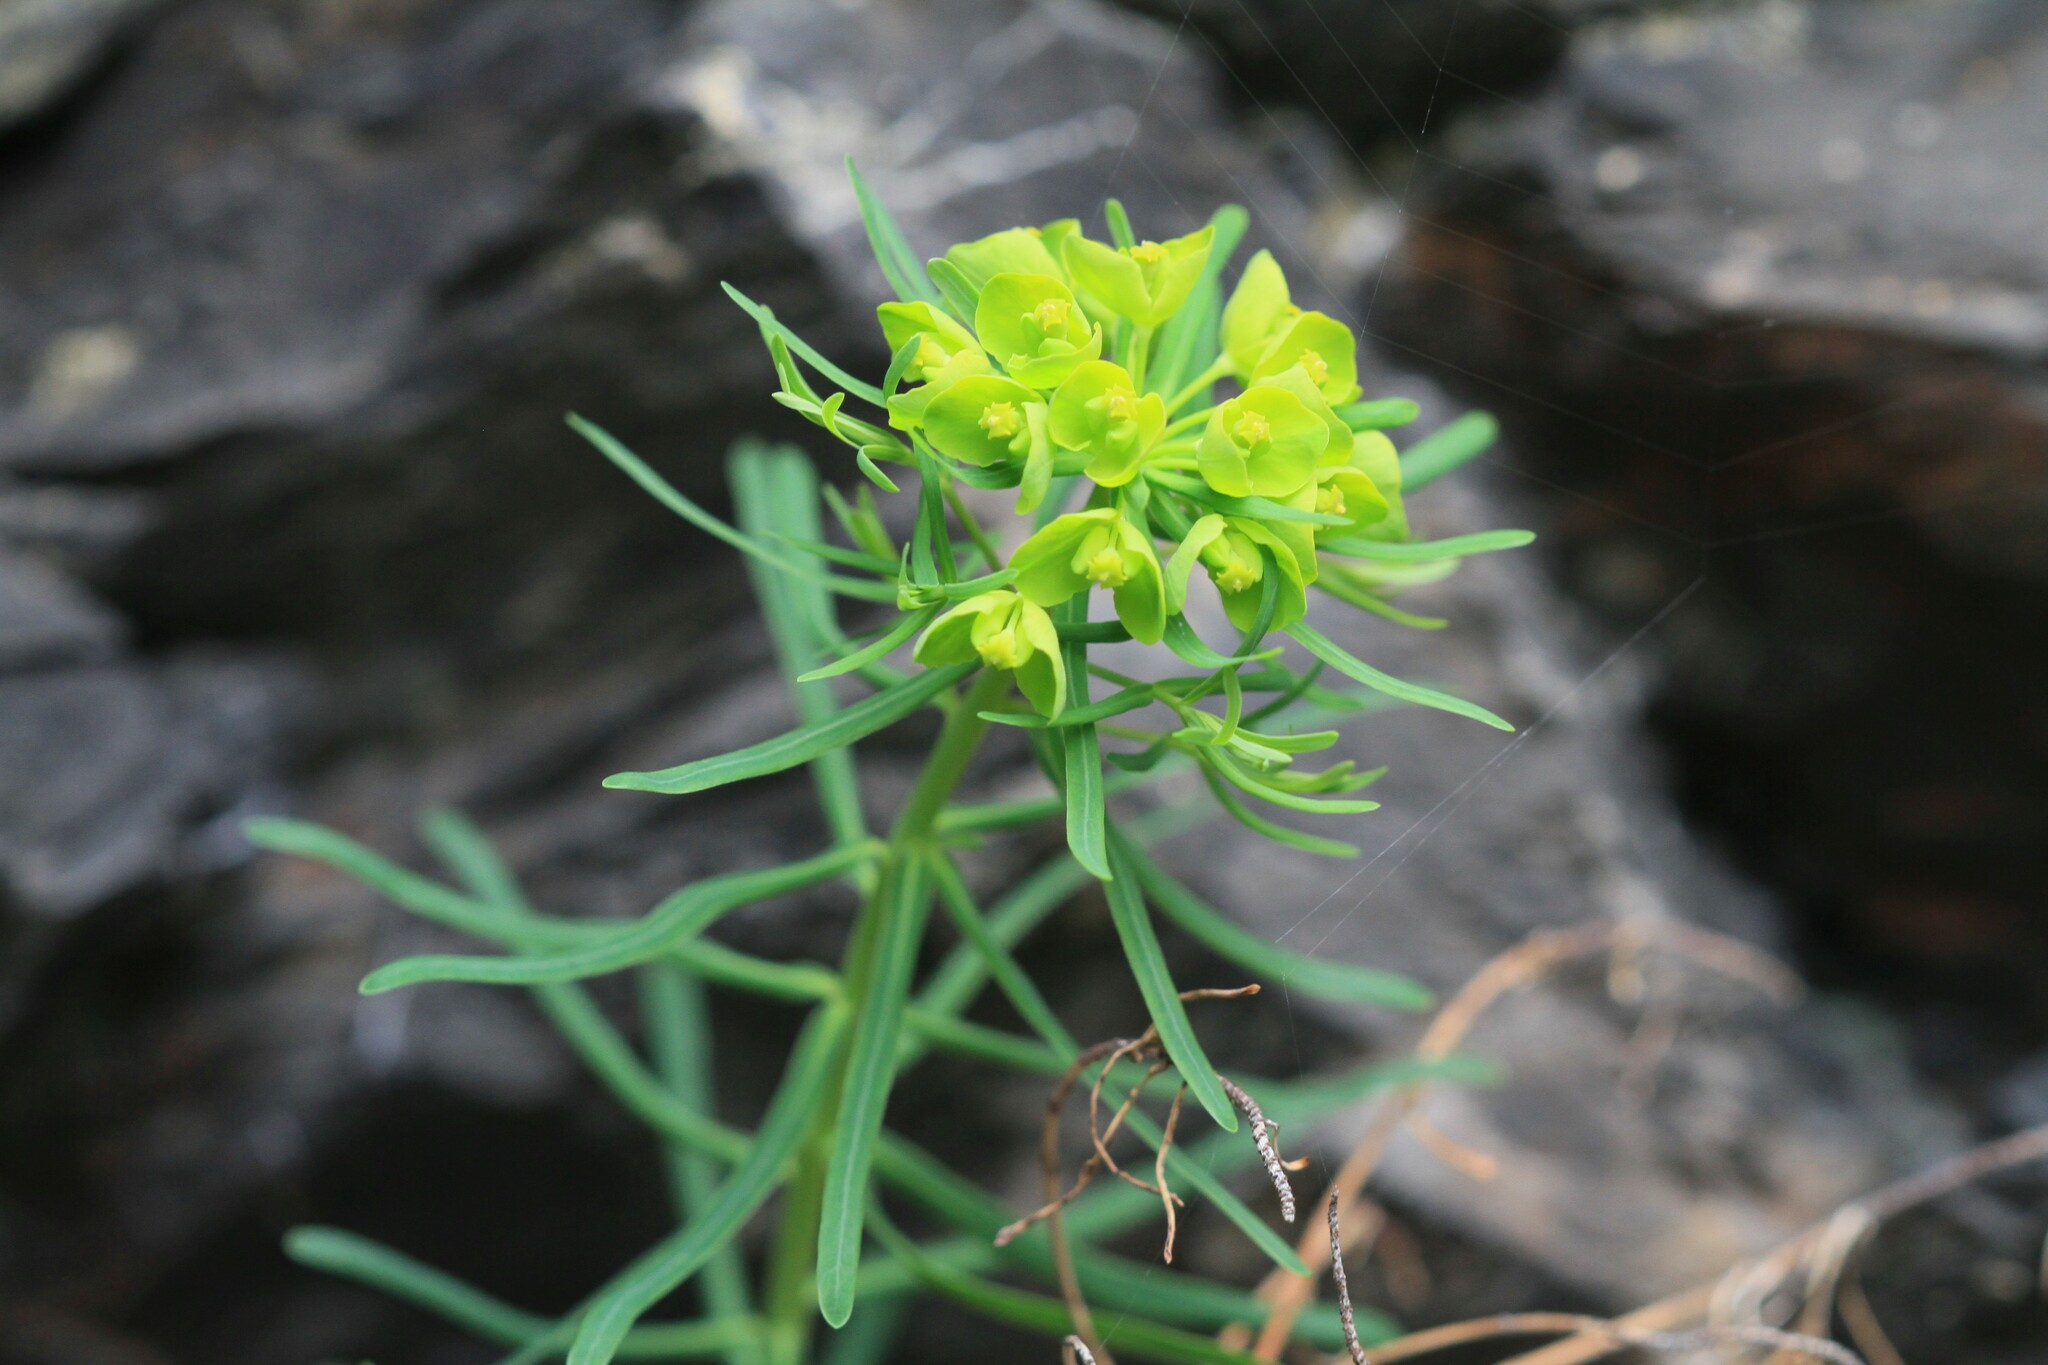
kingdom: Plantae
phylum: Tracheophyta
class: Magnoliopsida
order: Malpighiales
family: Euphorbiaceae
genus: Euphorbia
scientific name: Euphorbia cyparissias
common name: Cypress spurge
